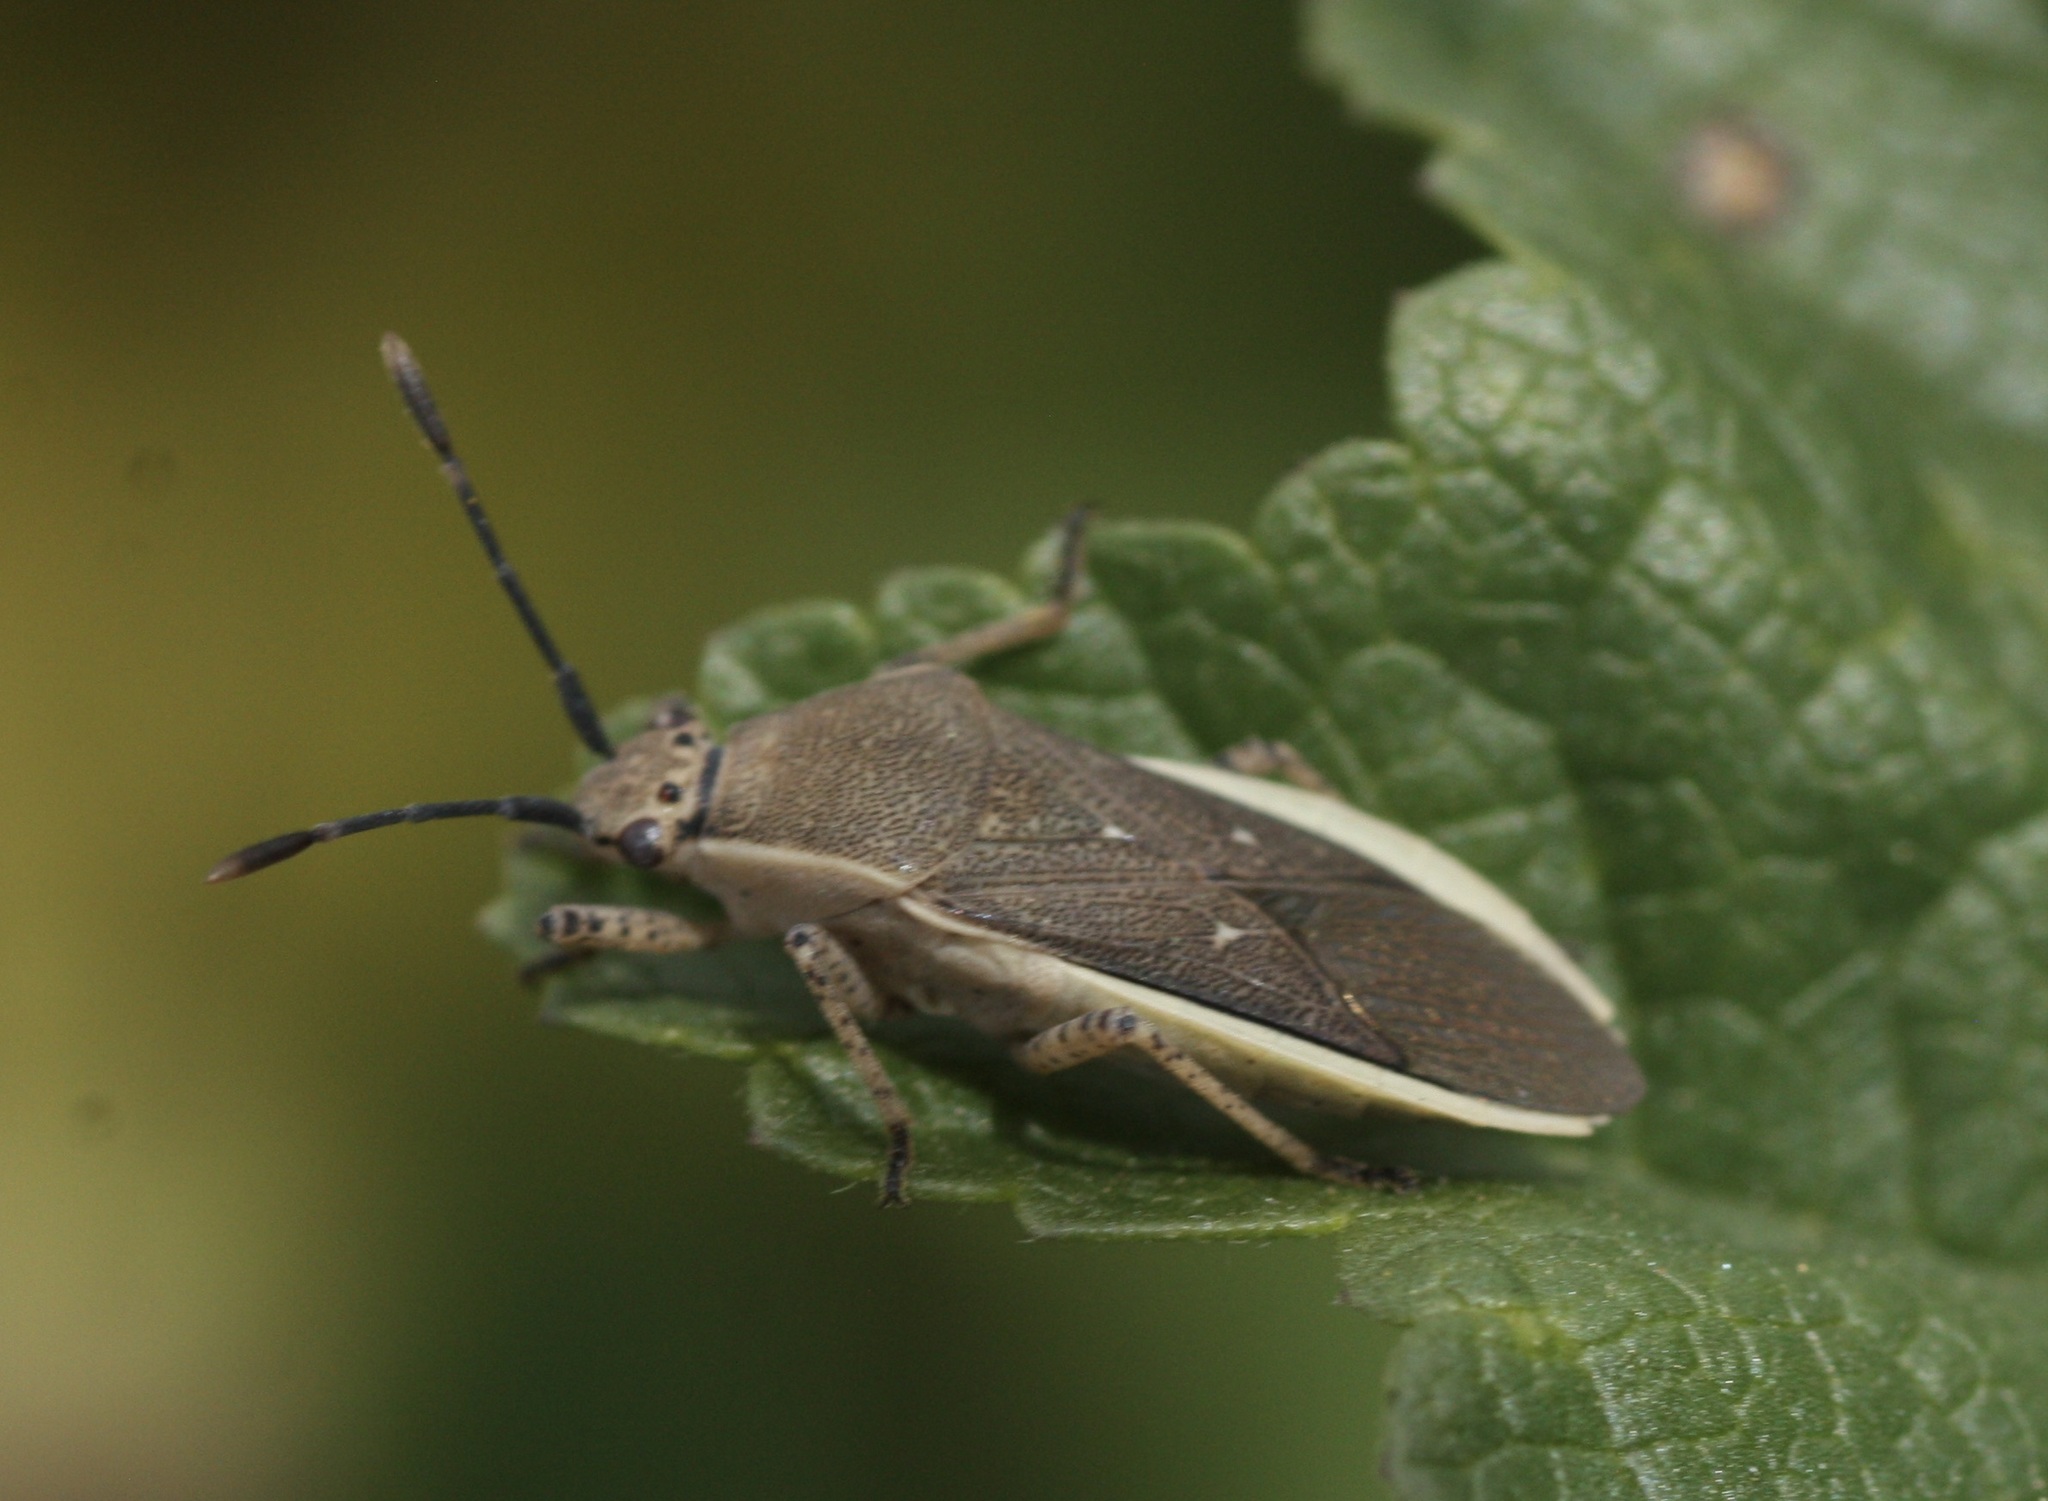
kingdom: Animalia
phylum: Arthropoda
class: Insecta
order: Hemiptera
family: Coreidae
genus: Catorhintha
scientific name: Catorhintha selector
